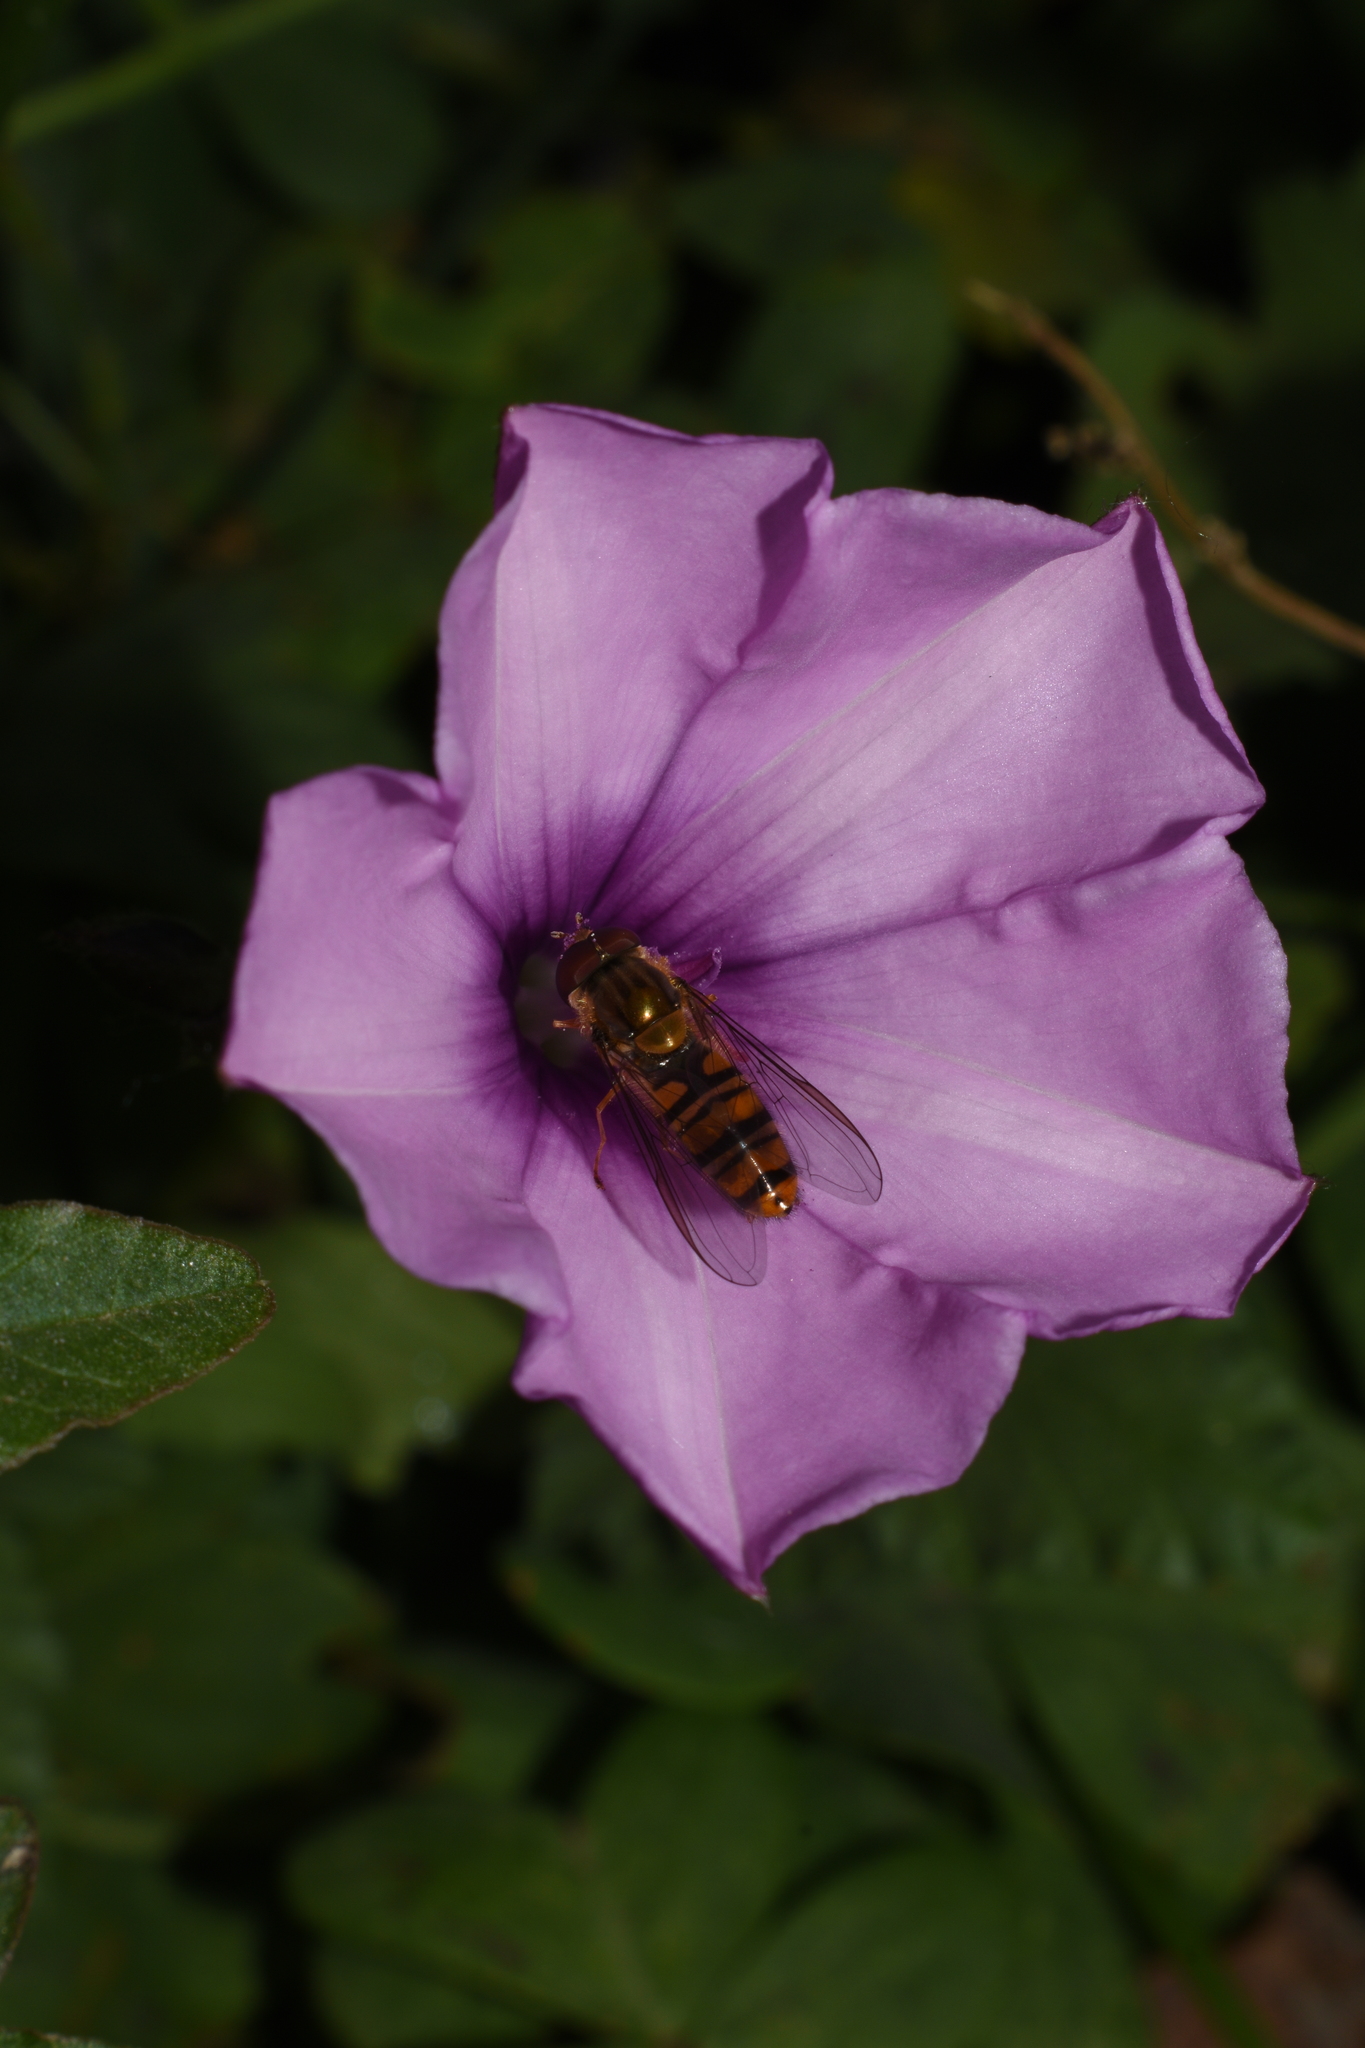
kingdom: Animalia
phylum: Arthropoda
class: Insecta
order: Diptera
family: Syrphidae
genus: Episyrphus
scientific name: Episyrphus balteatus
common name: Marmalade hoverfly
